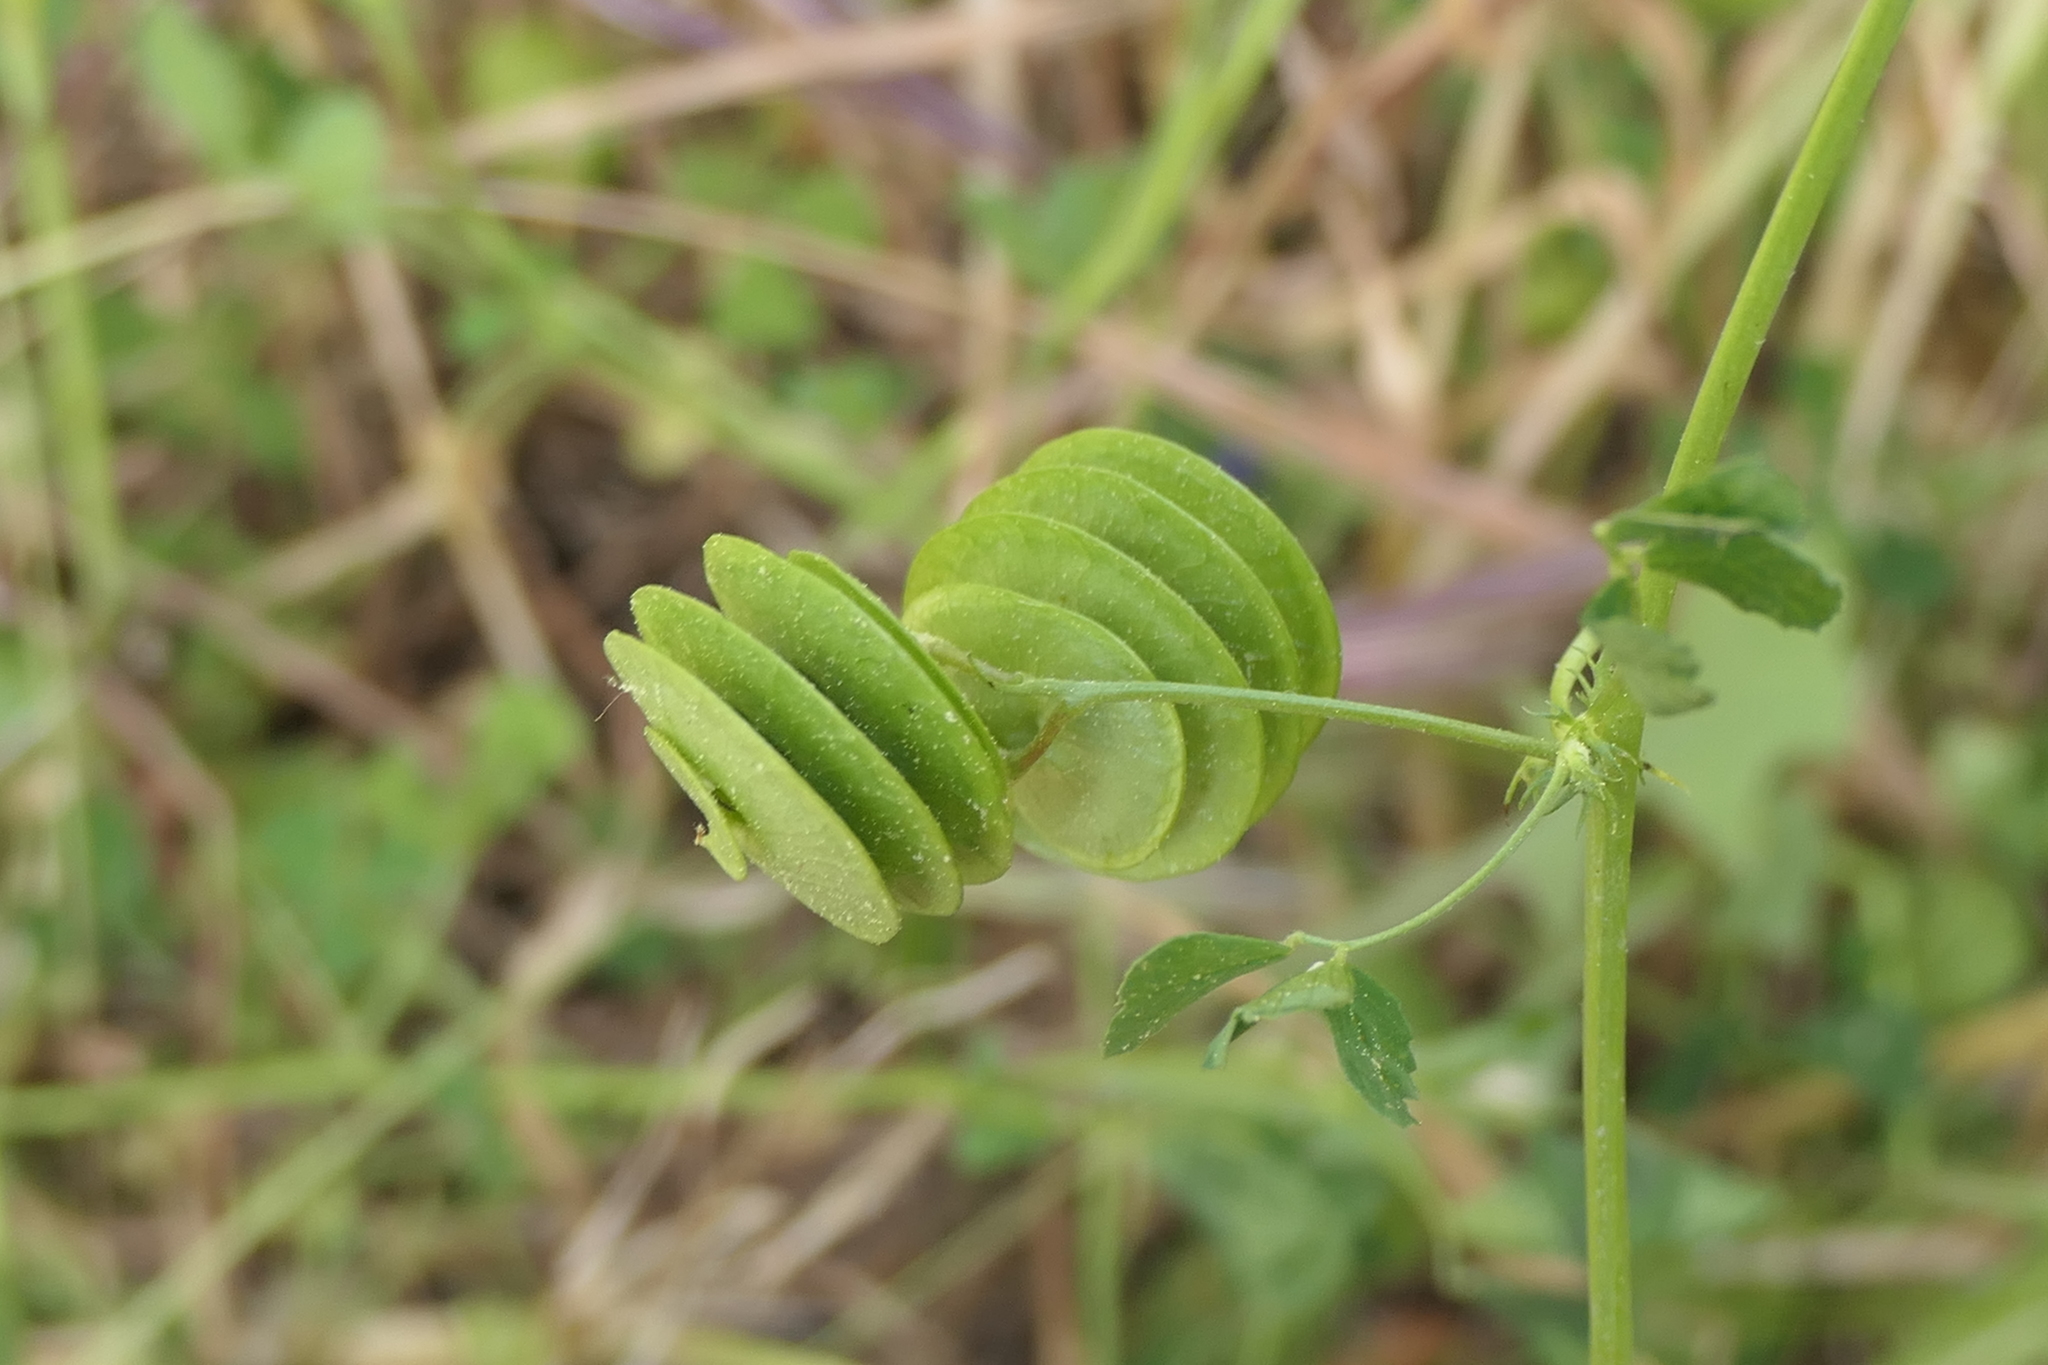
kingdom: Plantae
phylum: Tracheophyta
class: Magnoliopsida
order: Fabales
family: Fabaceae
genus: Medicago
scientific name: Medicago orbicularis
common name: Button medick
